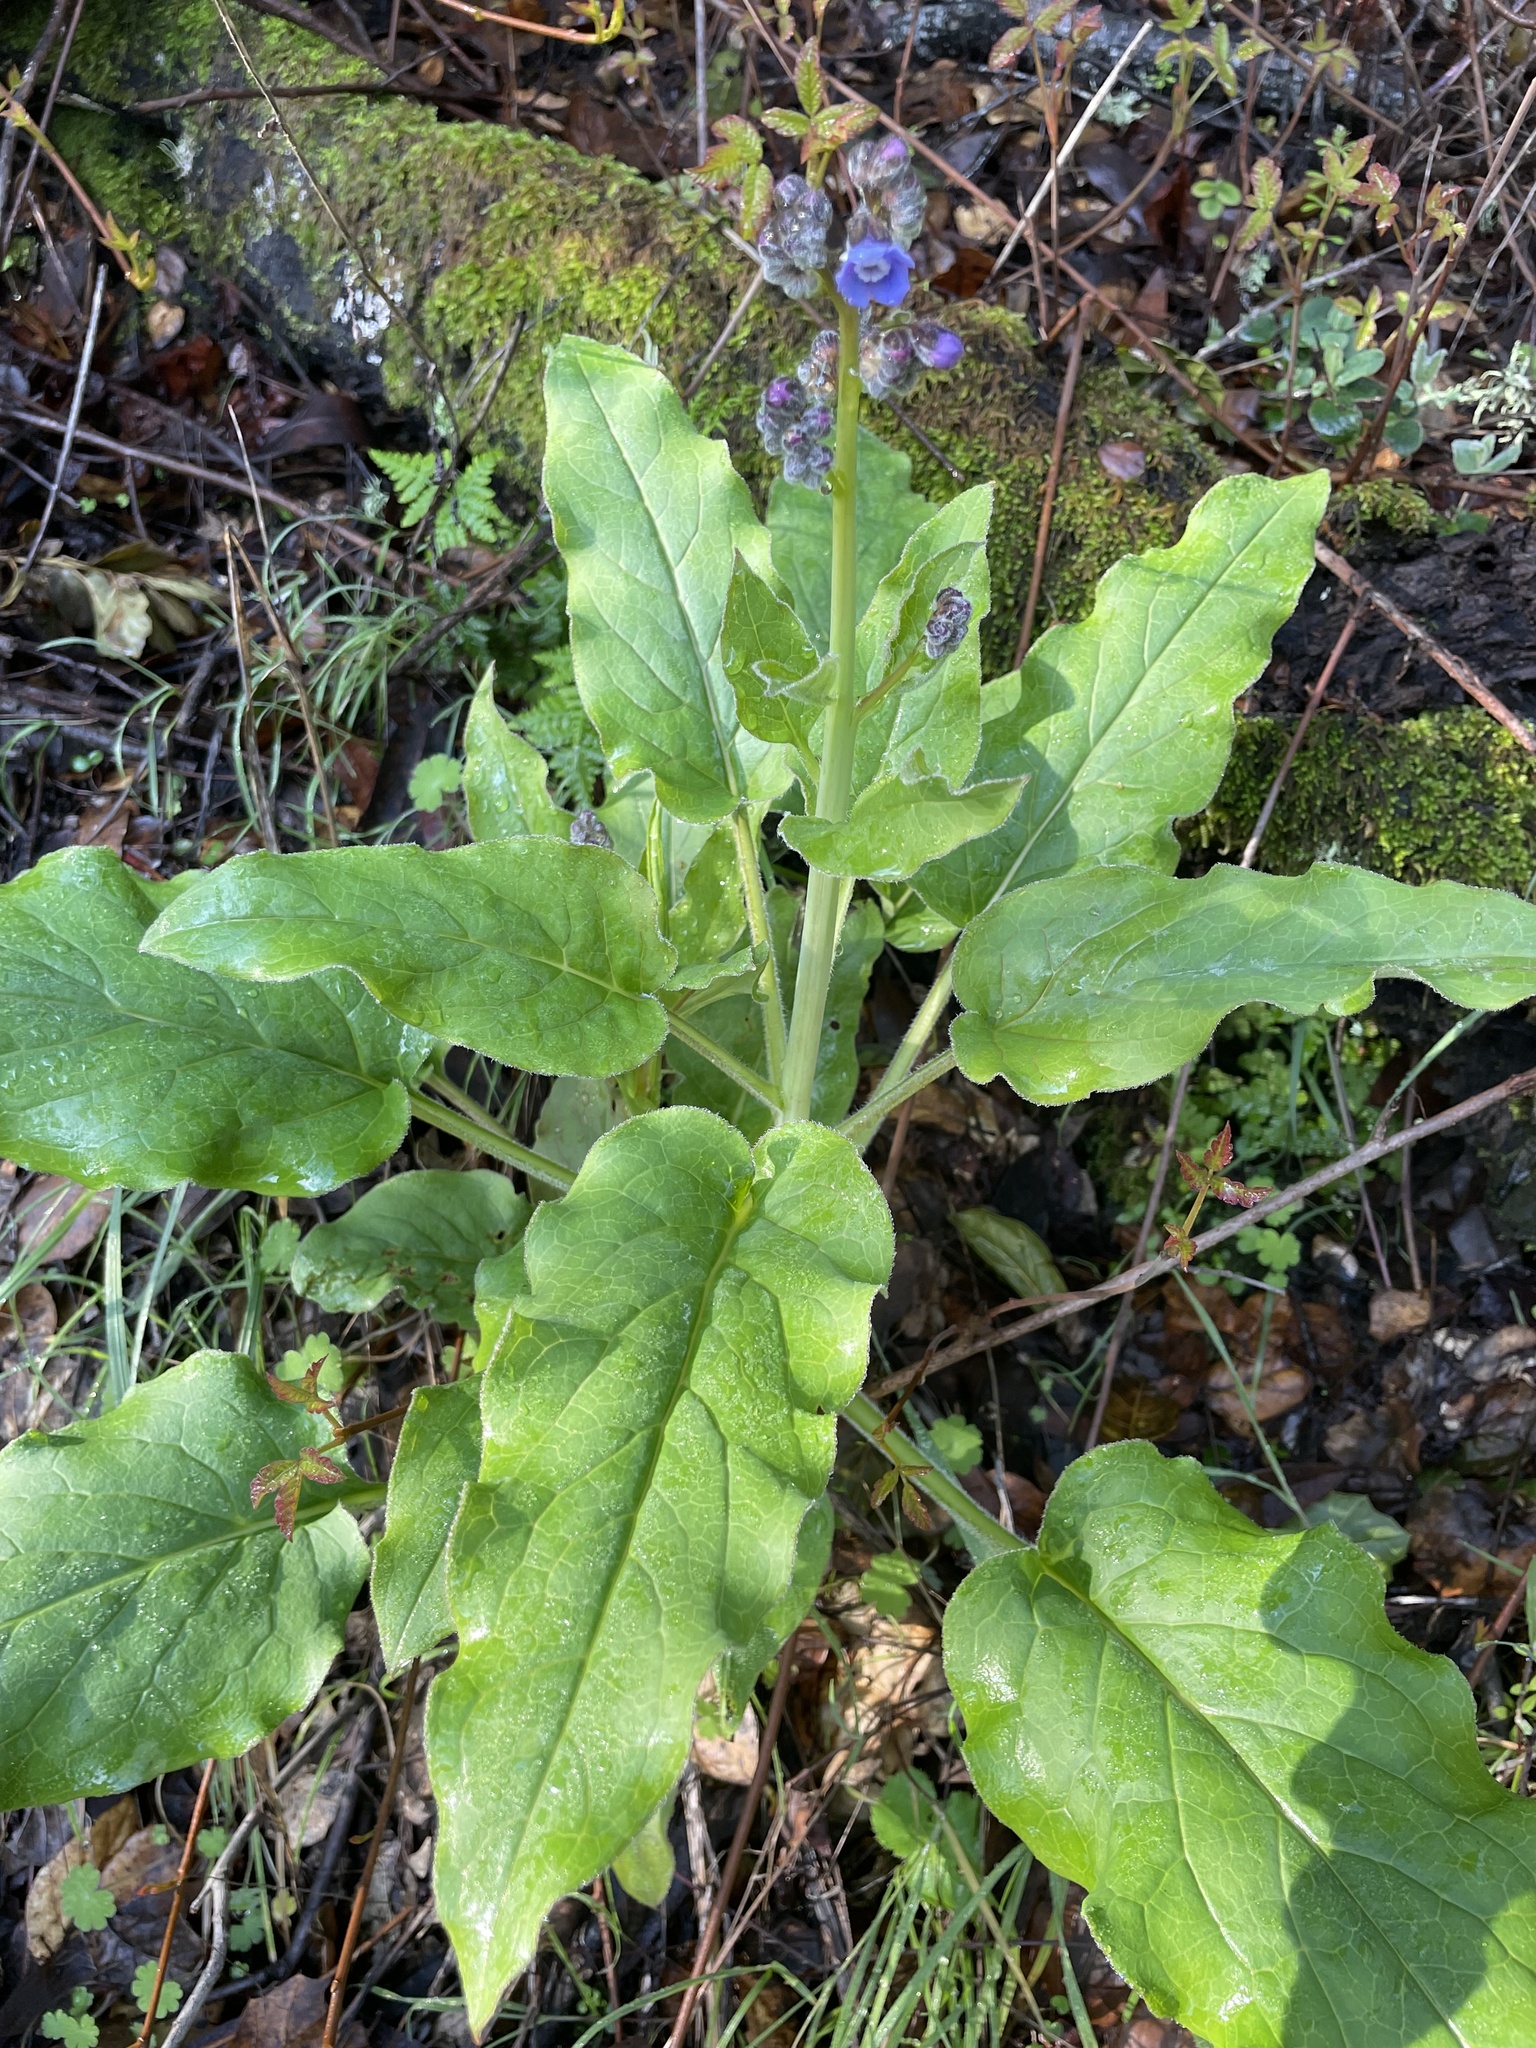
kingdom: Plantae
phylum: Tracheophyta
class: Magnoliopsida
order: Boraginales
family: Boraginaceae
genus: Adelinia
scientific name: Adelinia grande
